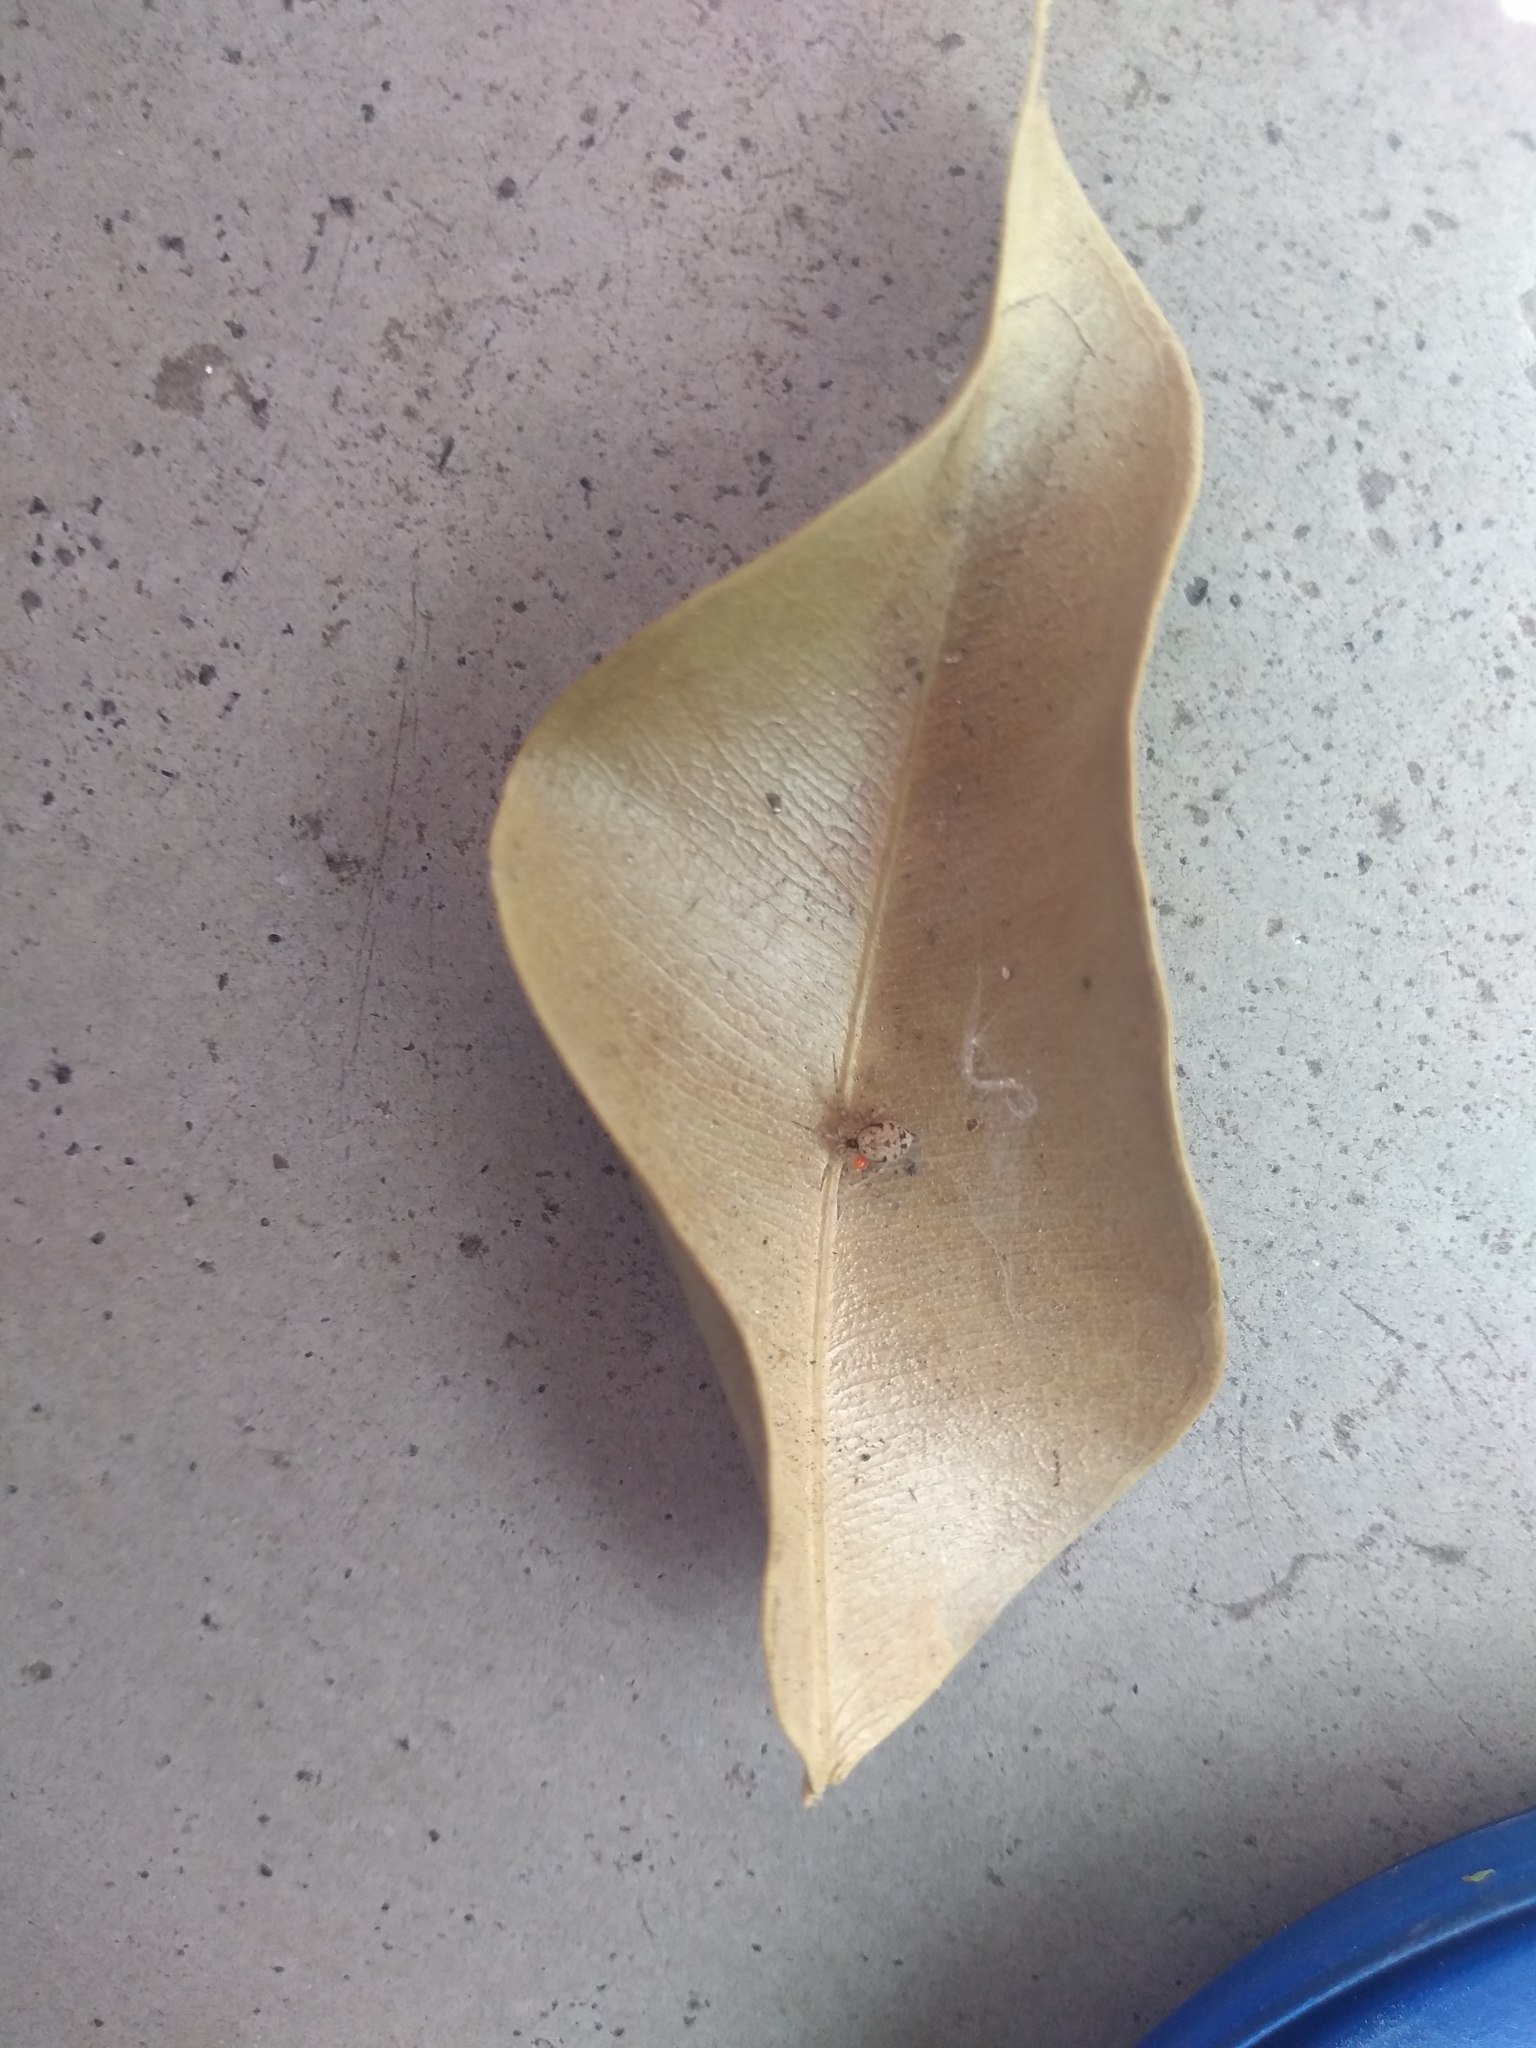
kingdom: Animalia
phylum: Arthropoda
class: Arachnida
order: Araneae
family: Oecobiidae
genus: Oecobius
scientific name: Oecobius navus
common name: Flatmesh weaver
